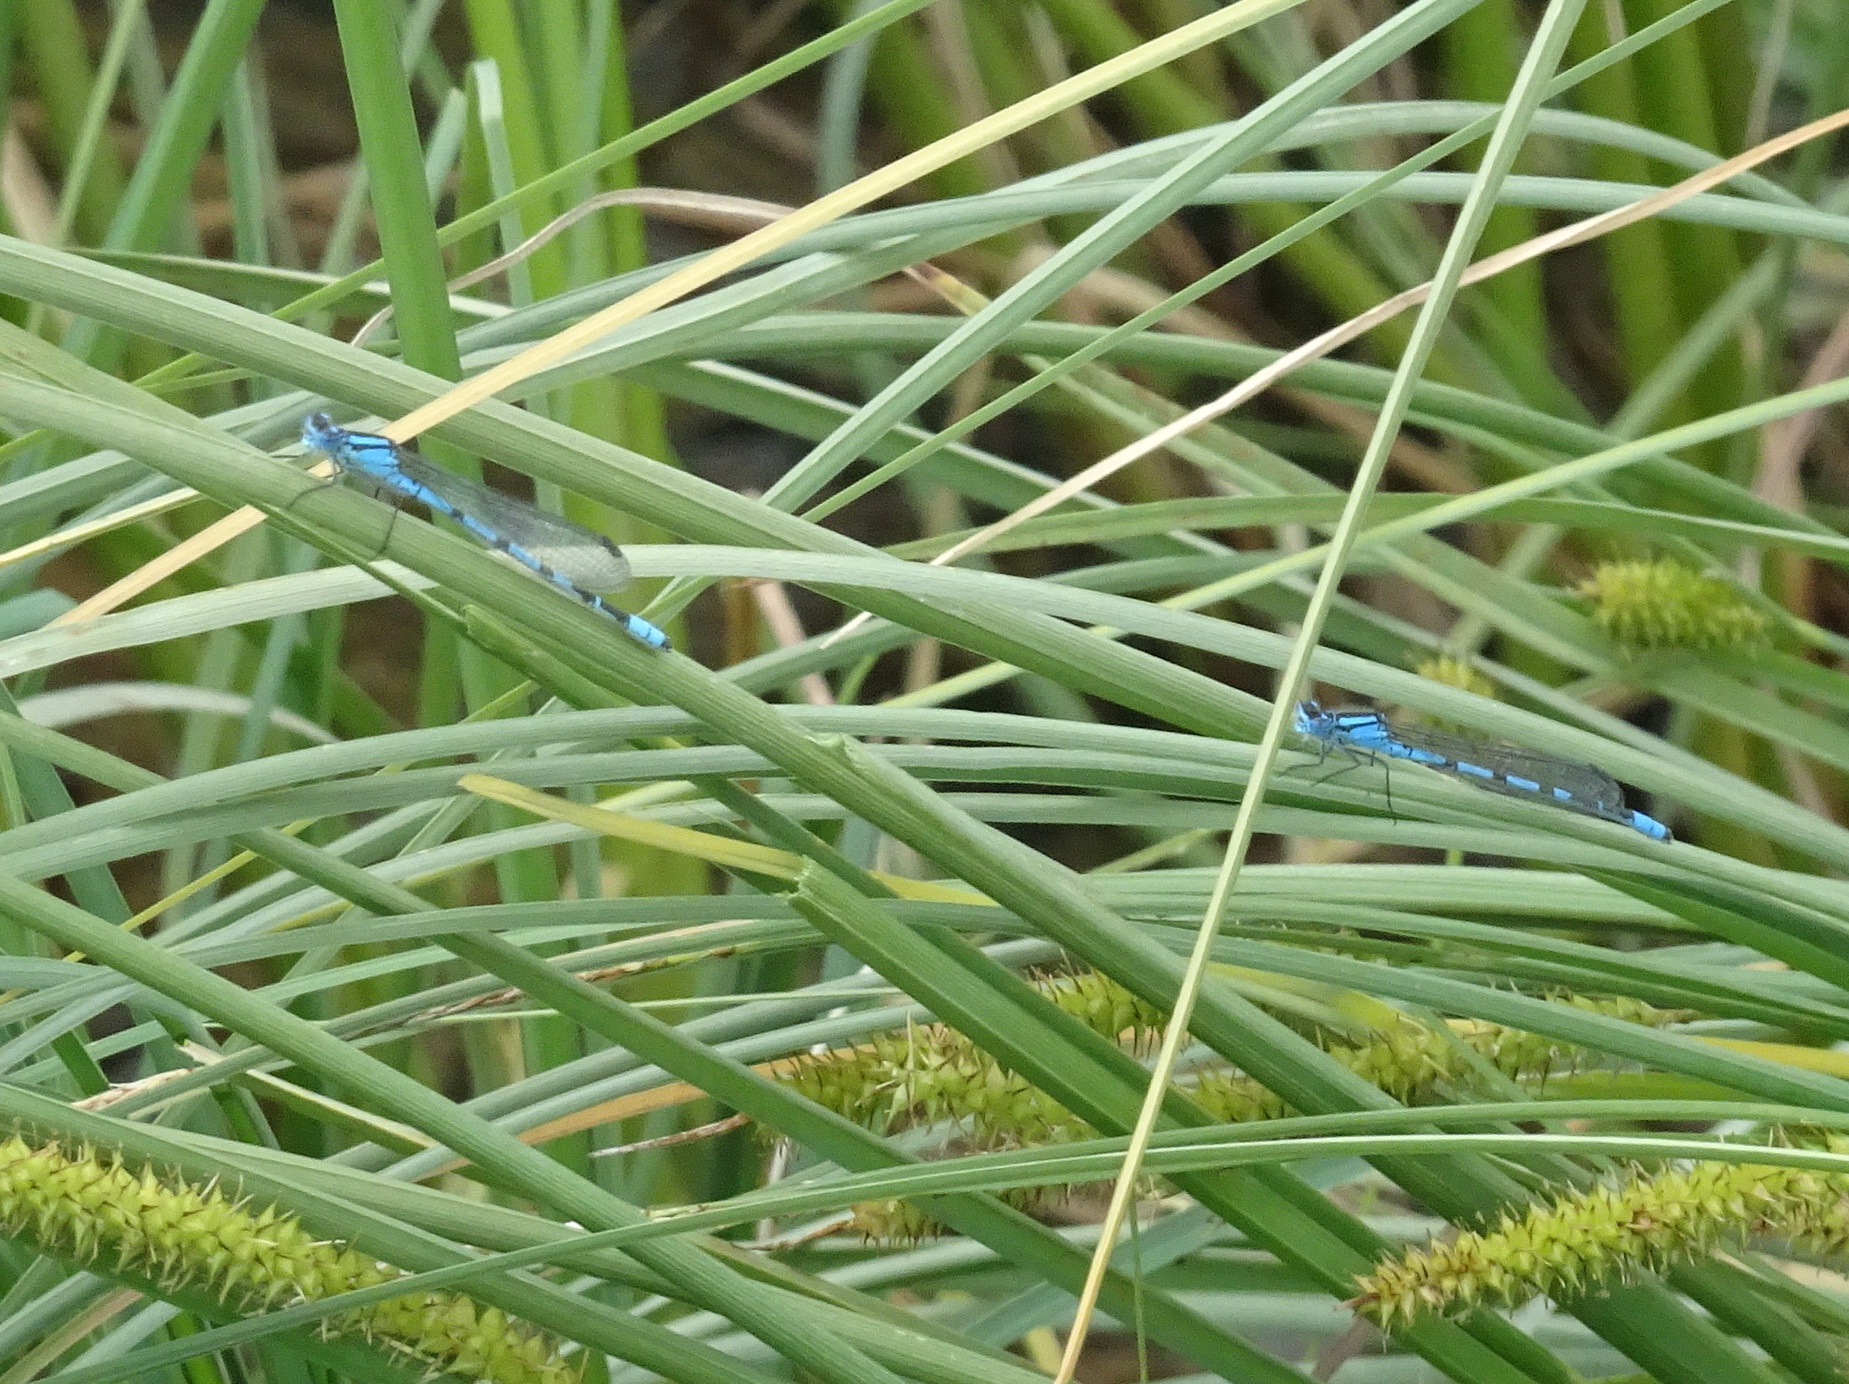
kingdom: Animalia
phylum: Arthropoda
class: Insecta
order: Odonata
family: Coenagrionidae
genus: Enallagma
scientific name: Enallagma cyathigerum
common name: Common blue damselfly
